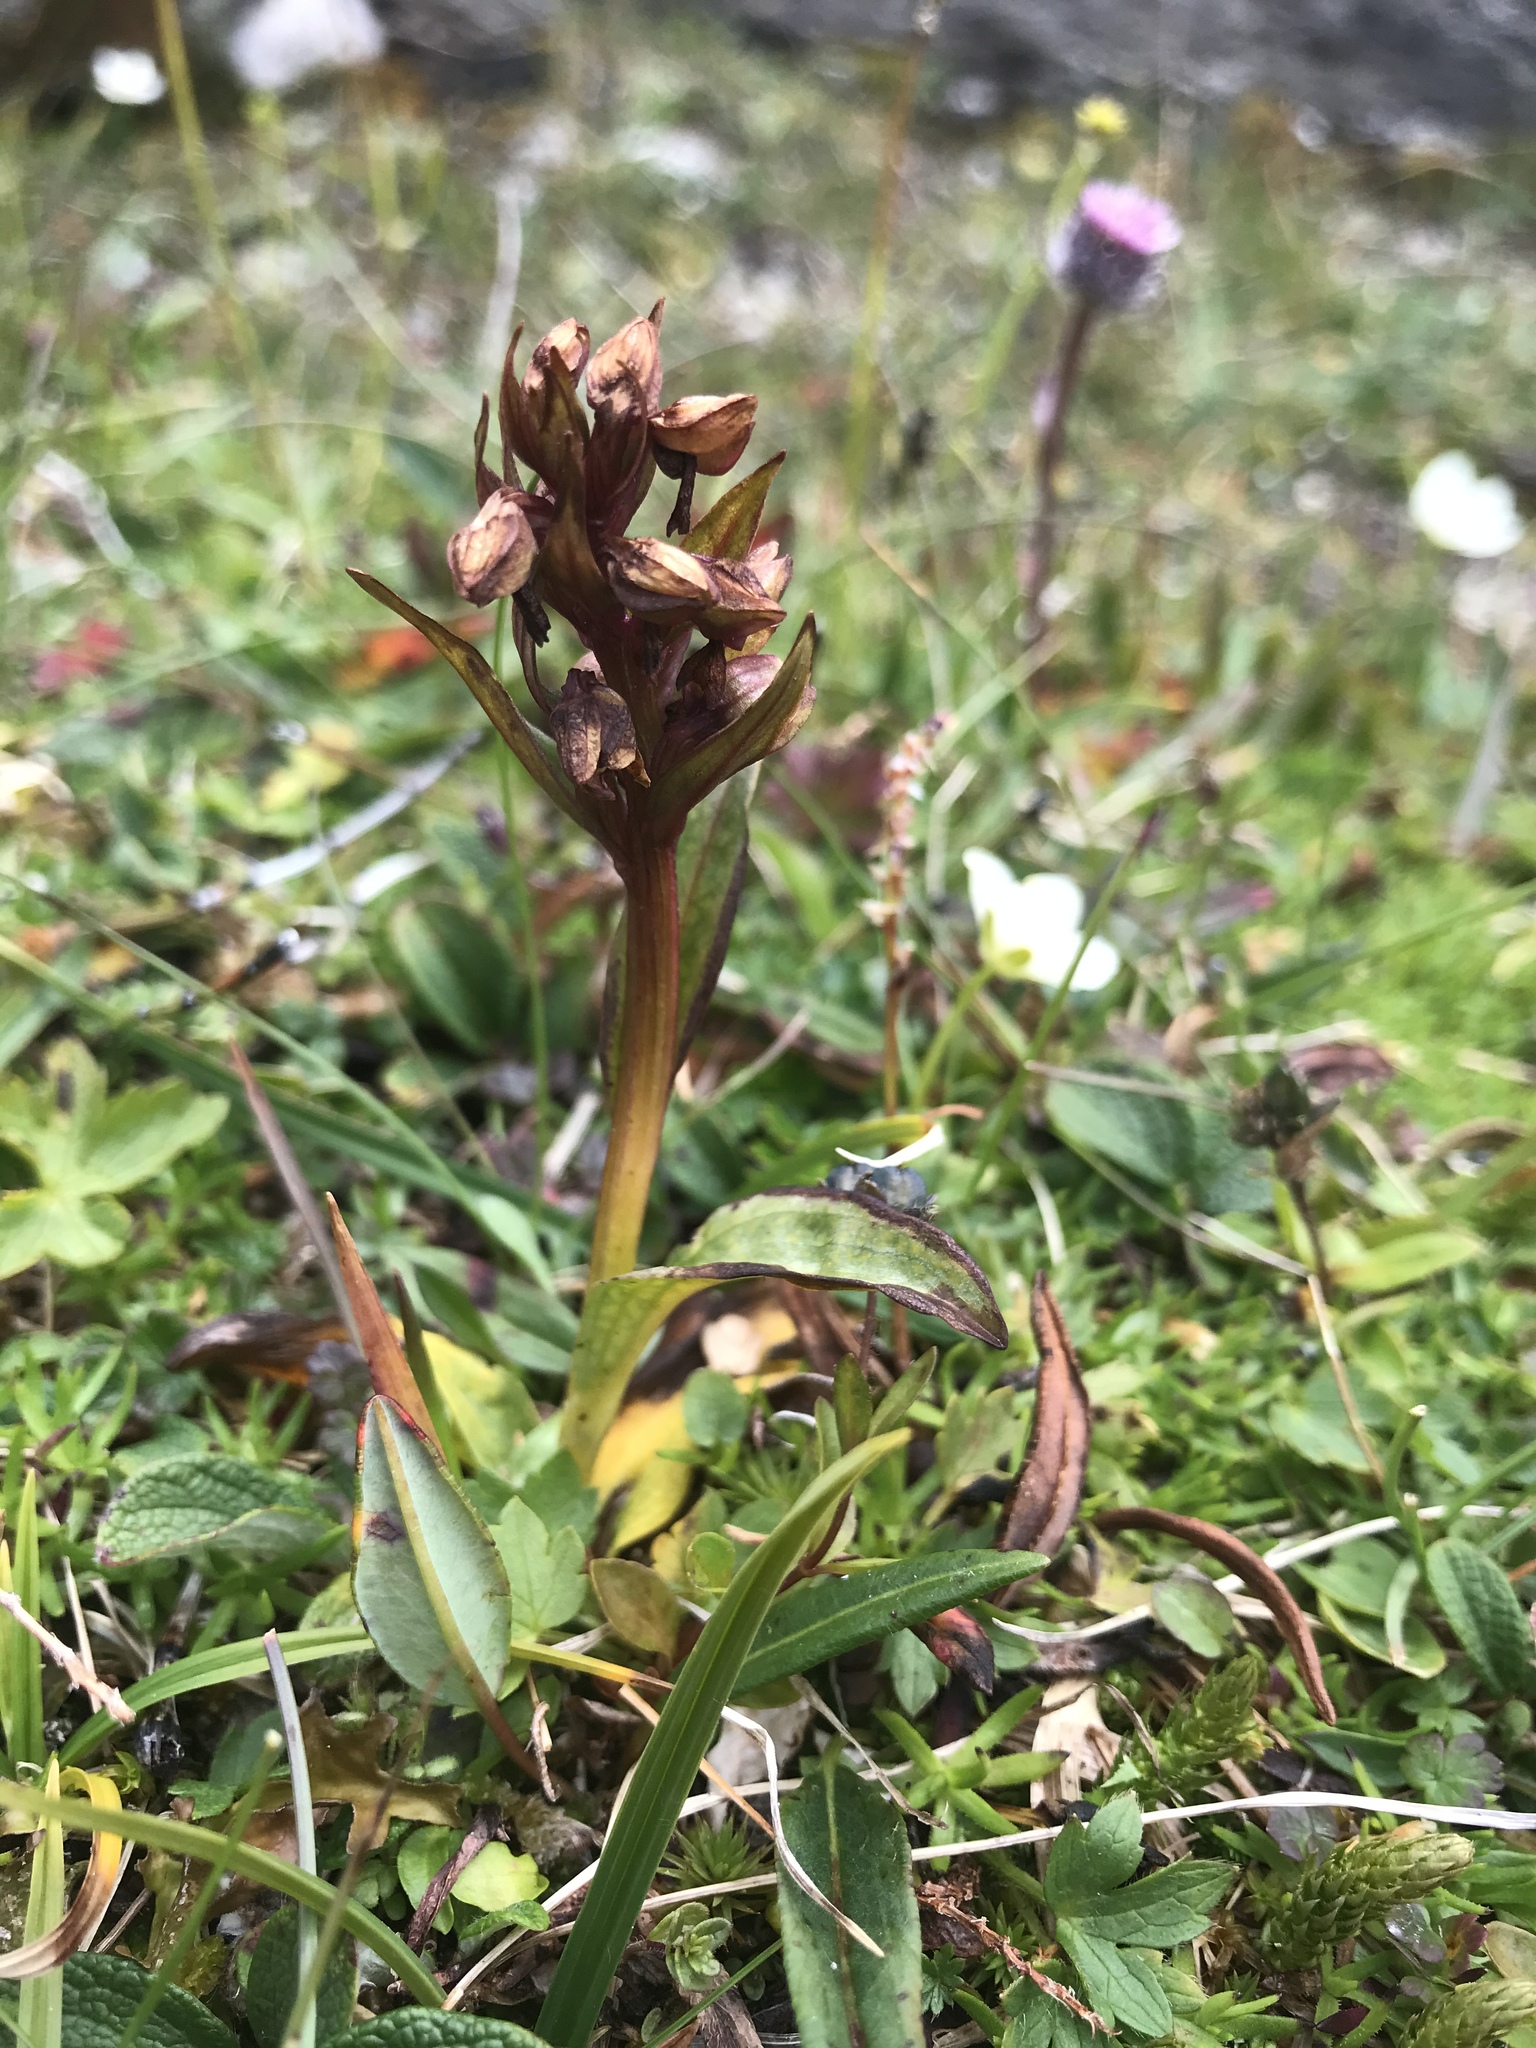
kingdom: Plantae
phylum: Tracheophyta
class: Liliopsida
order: Asparagales
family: Orchidaceae
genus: Dactylorhiza
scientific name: Dactylorhiza viridis
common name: Longbract frog orchid
